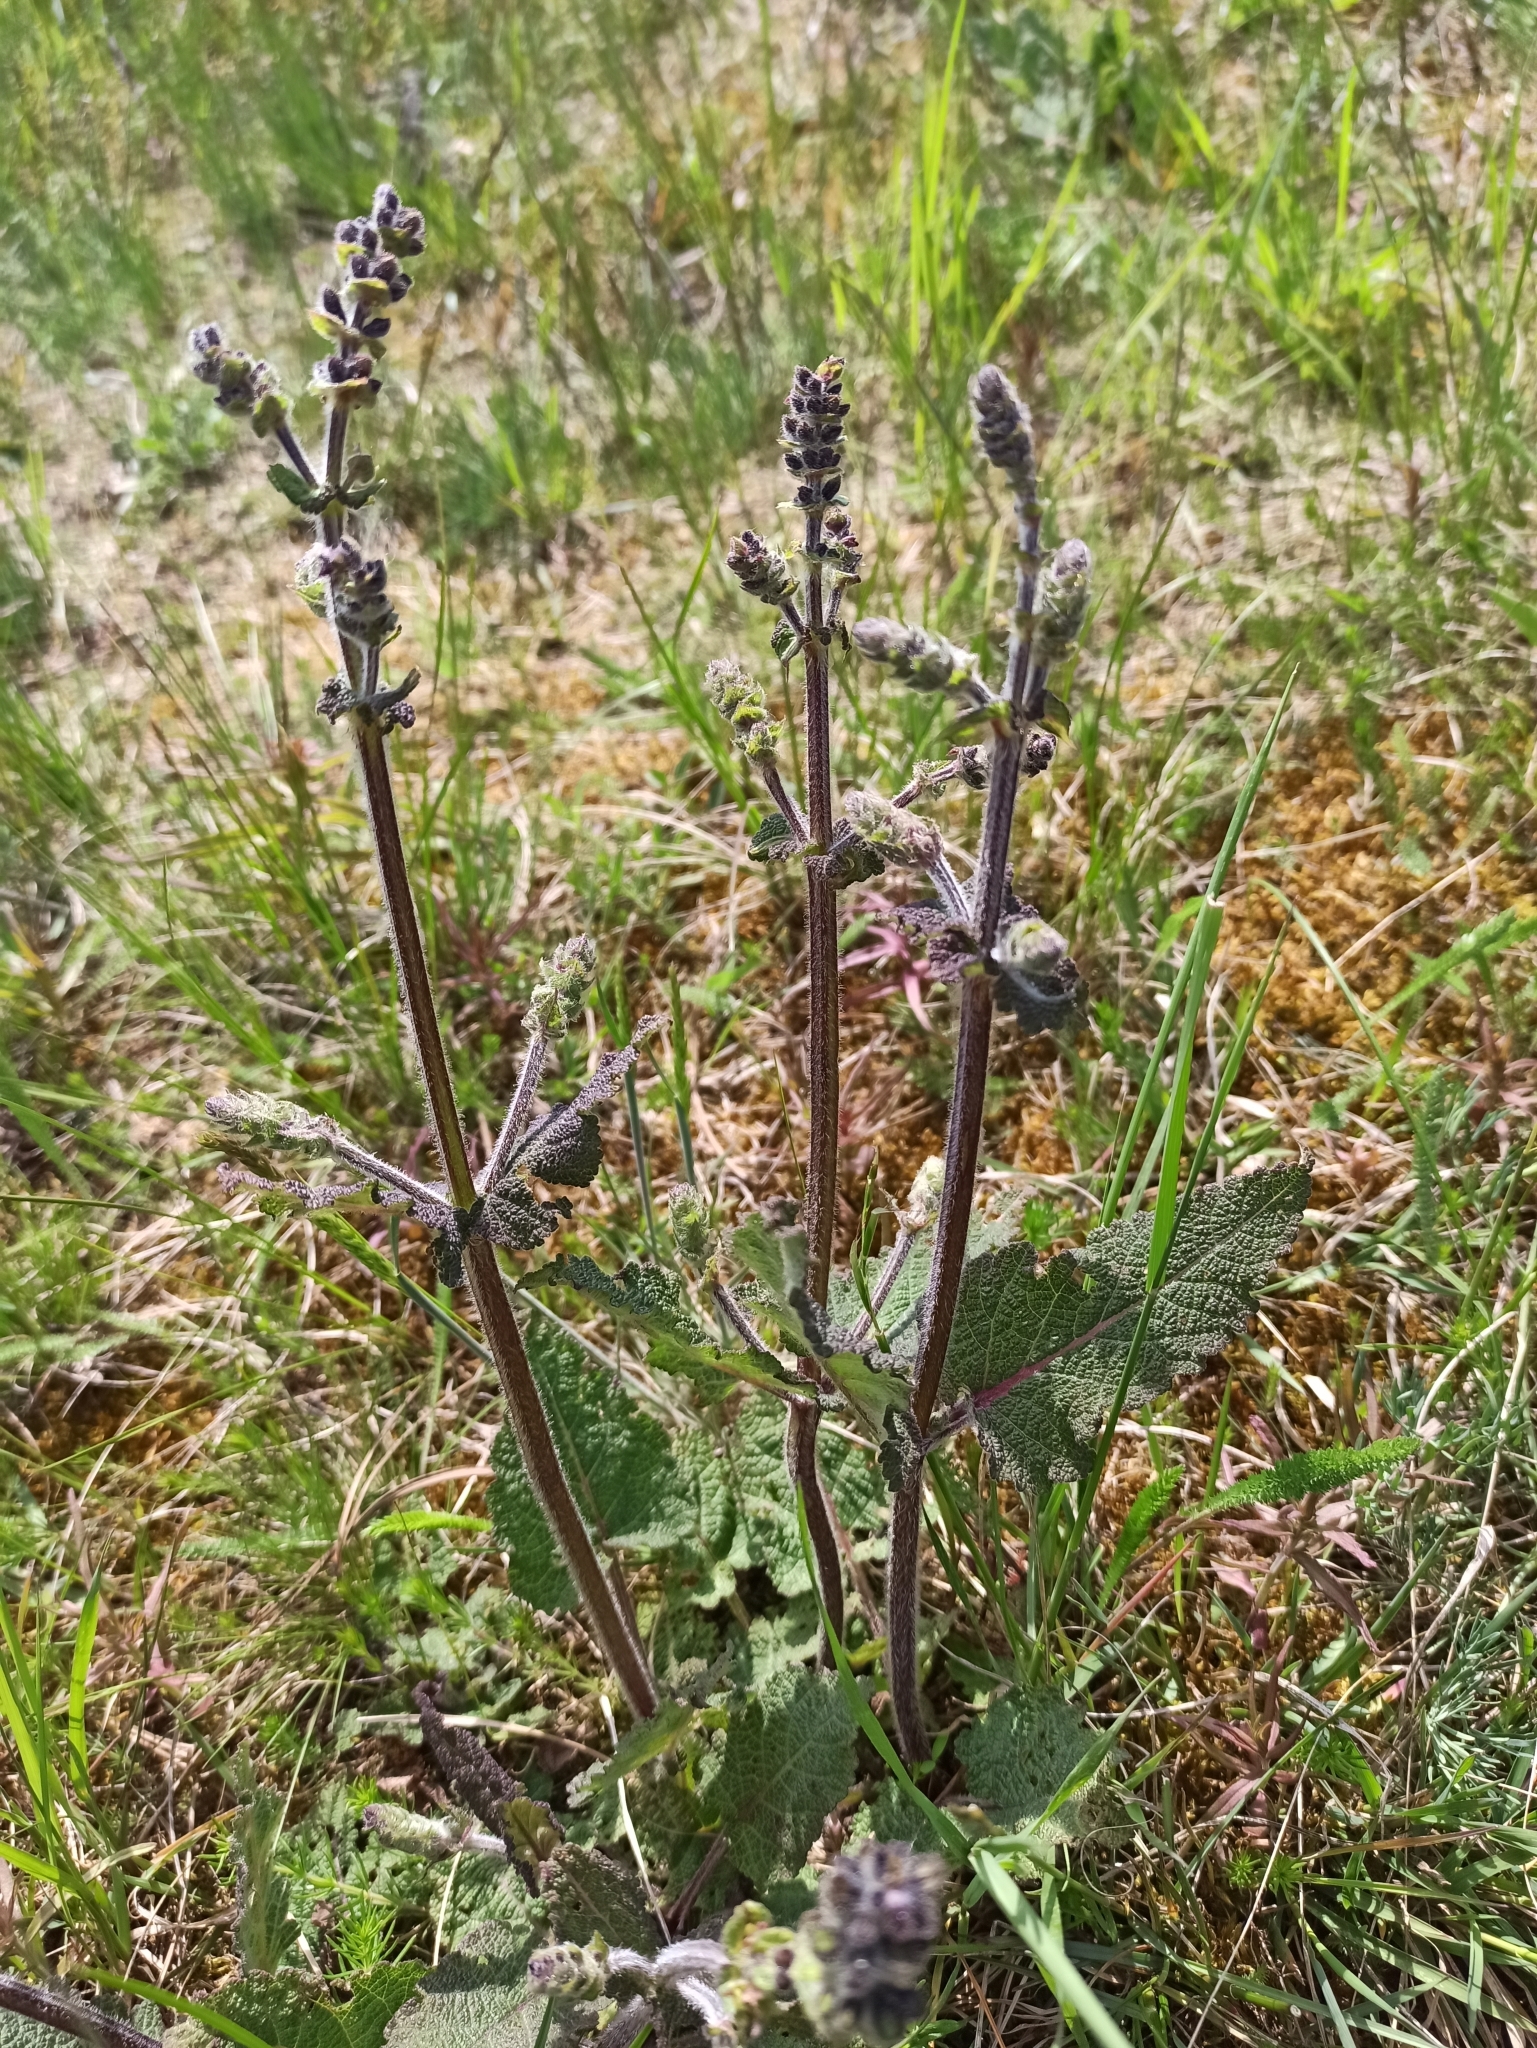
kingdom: Plantae
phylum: Tracheophyta
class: Magnoliopsida
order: Lamiales
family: Lamiaceae
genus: Salvia
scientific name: Salvia pratensis
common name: Meadow sage
